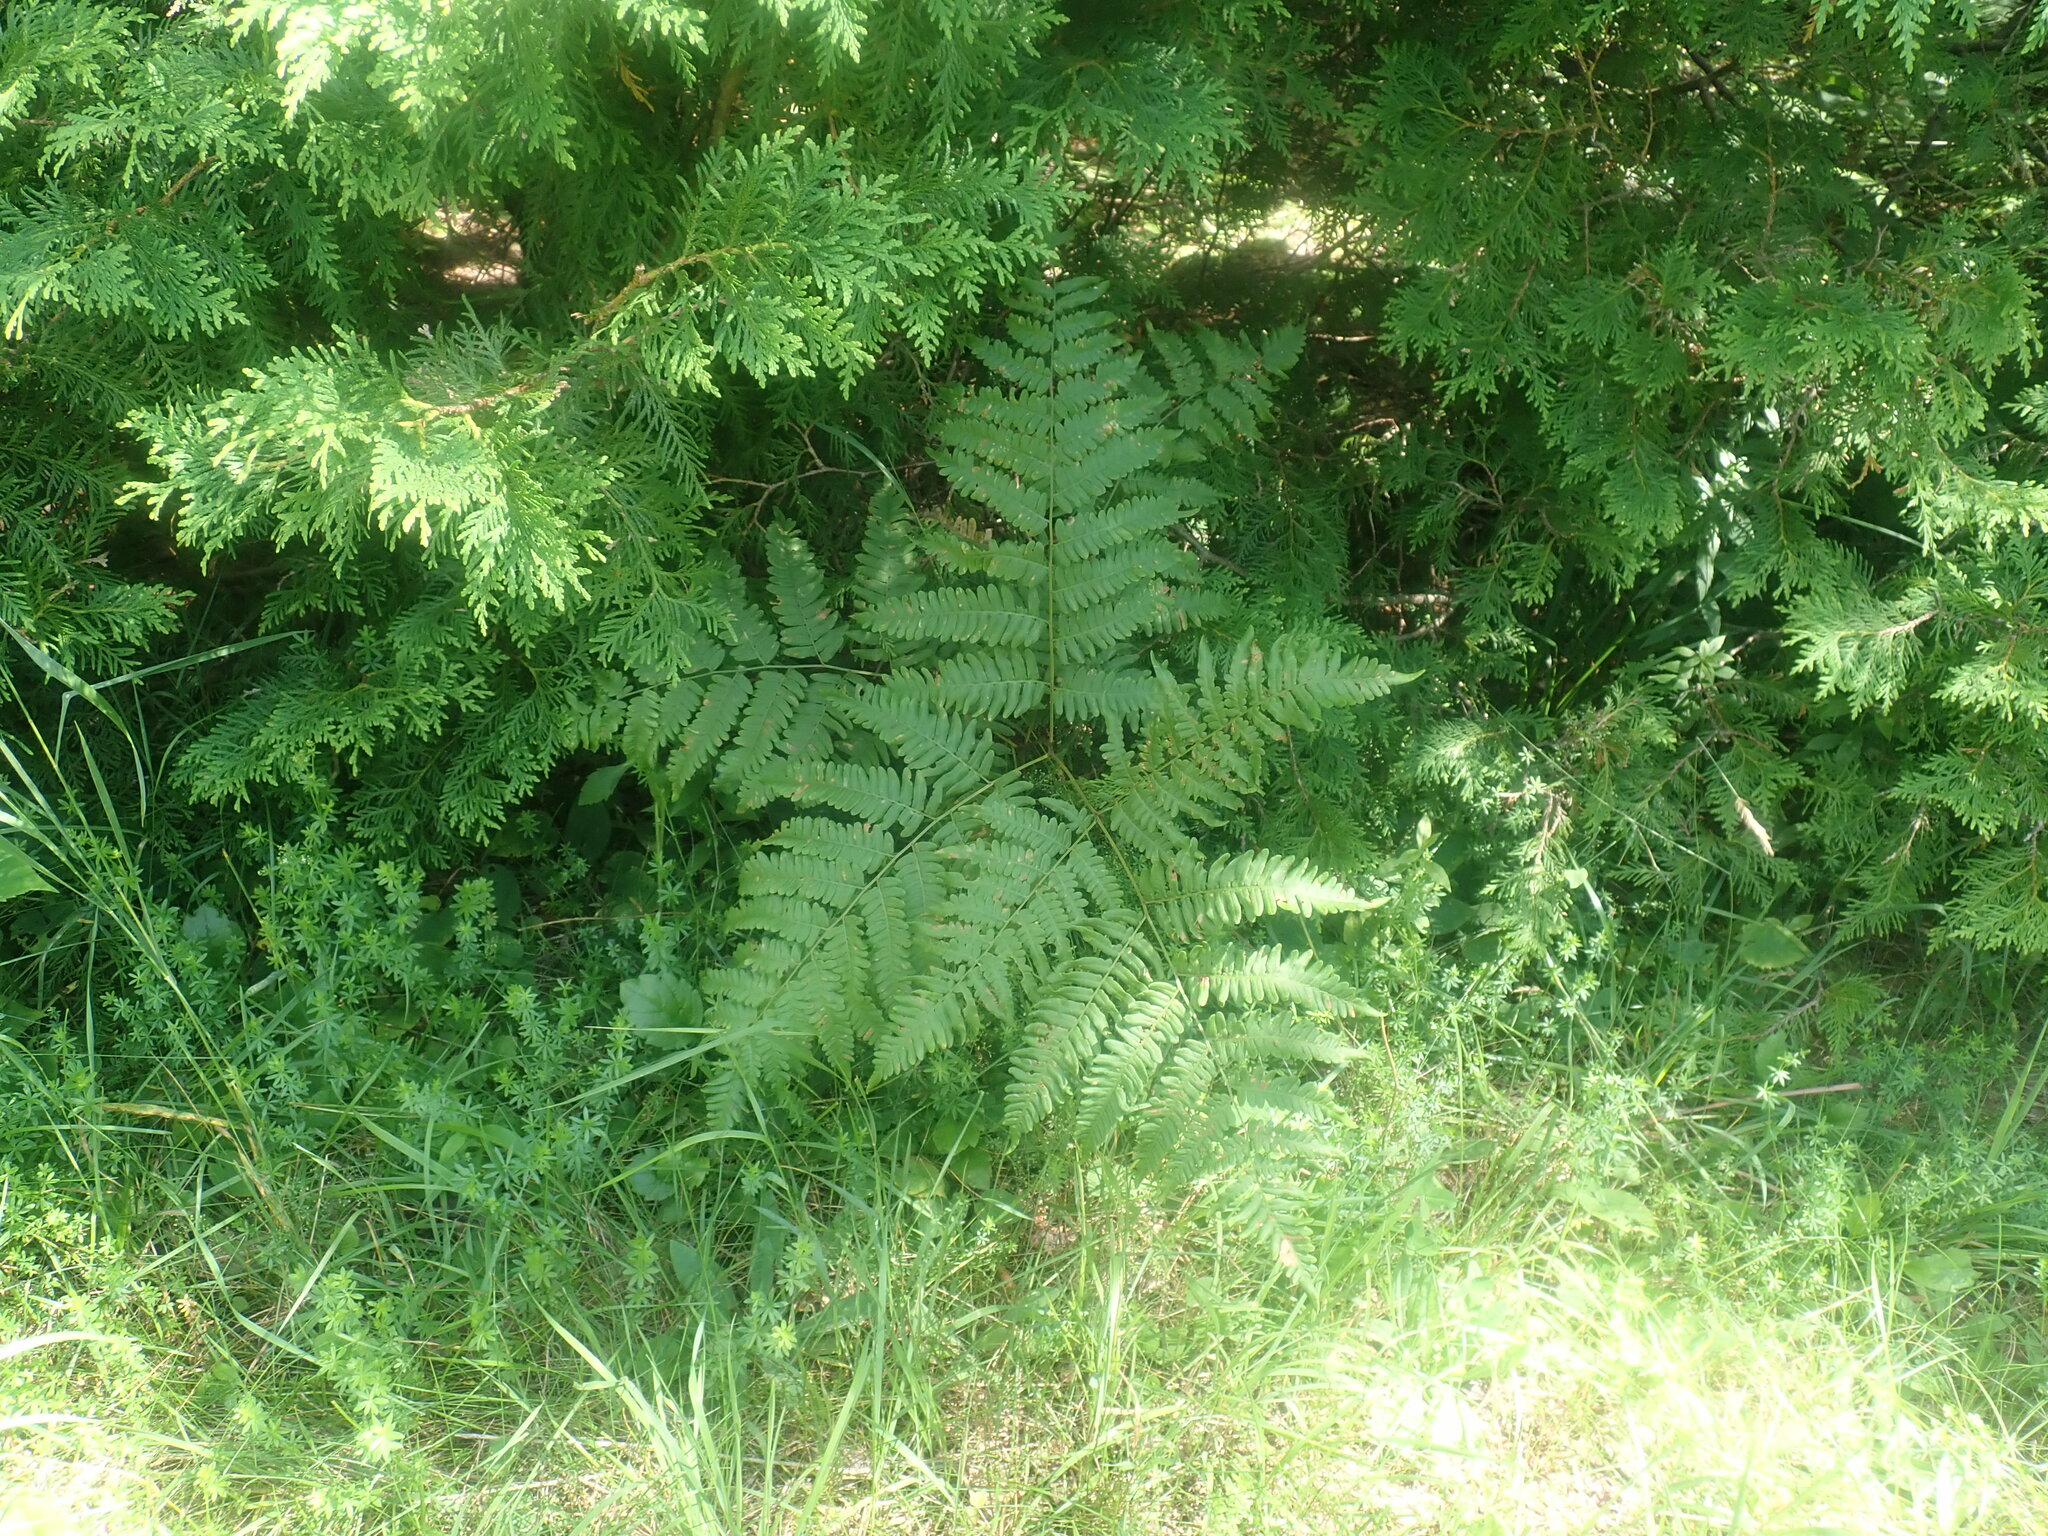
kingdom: Plantae
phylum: Tracheophyta
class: Polypodiopsida
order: Polypodiales
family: Dennstaedtiaceae
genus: Pteridium
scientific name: Pteridium aquilinum
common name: Bracken
